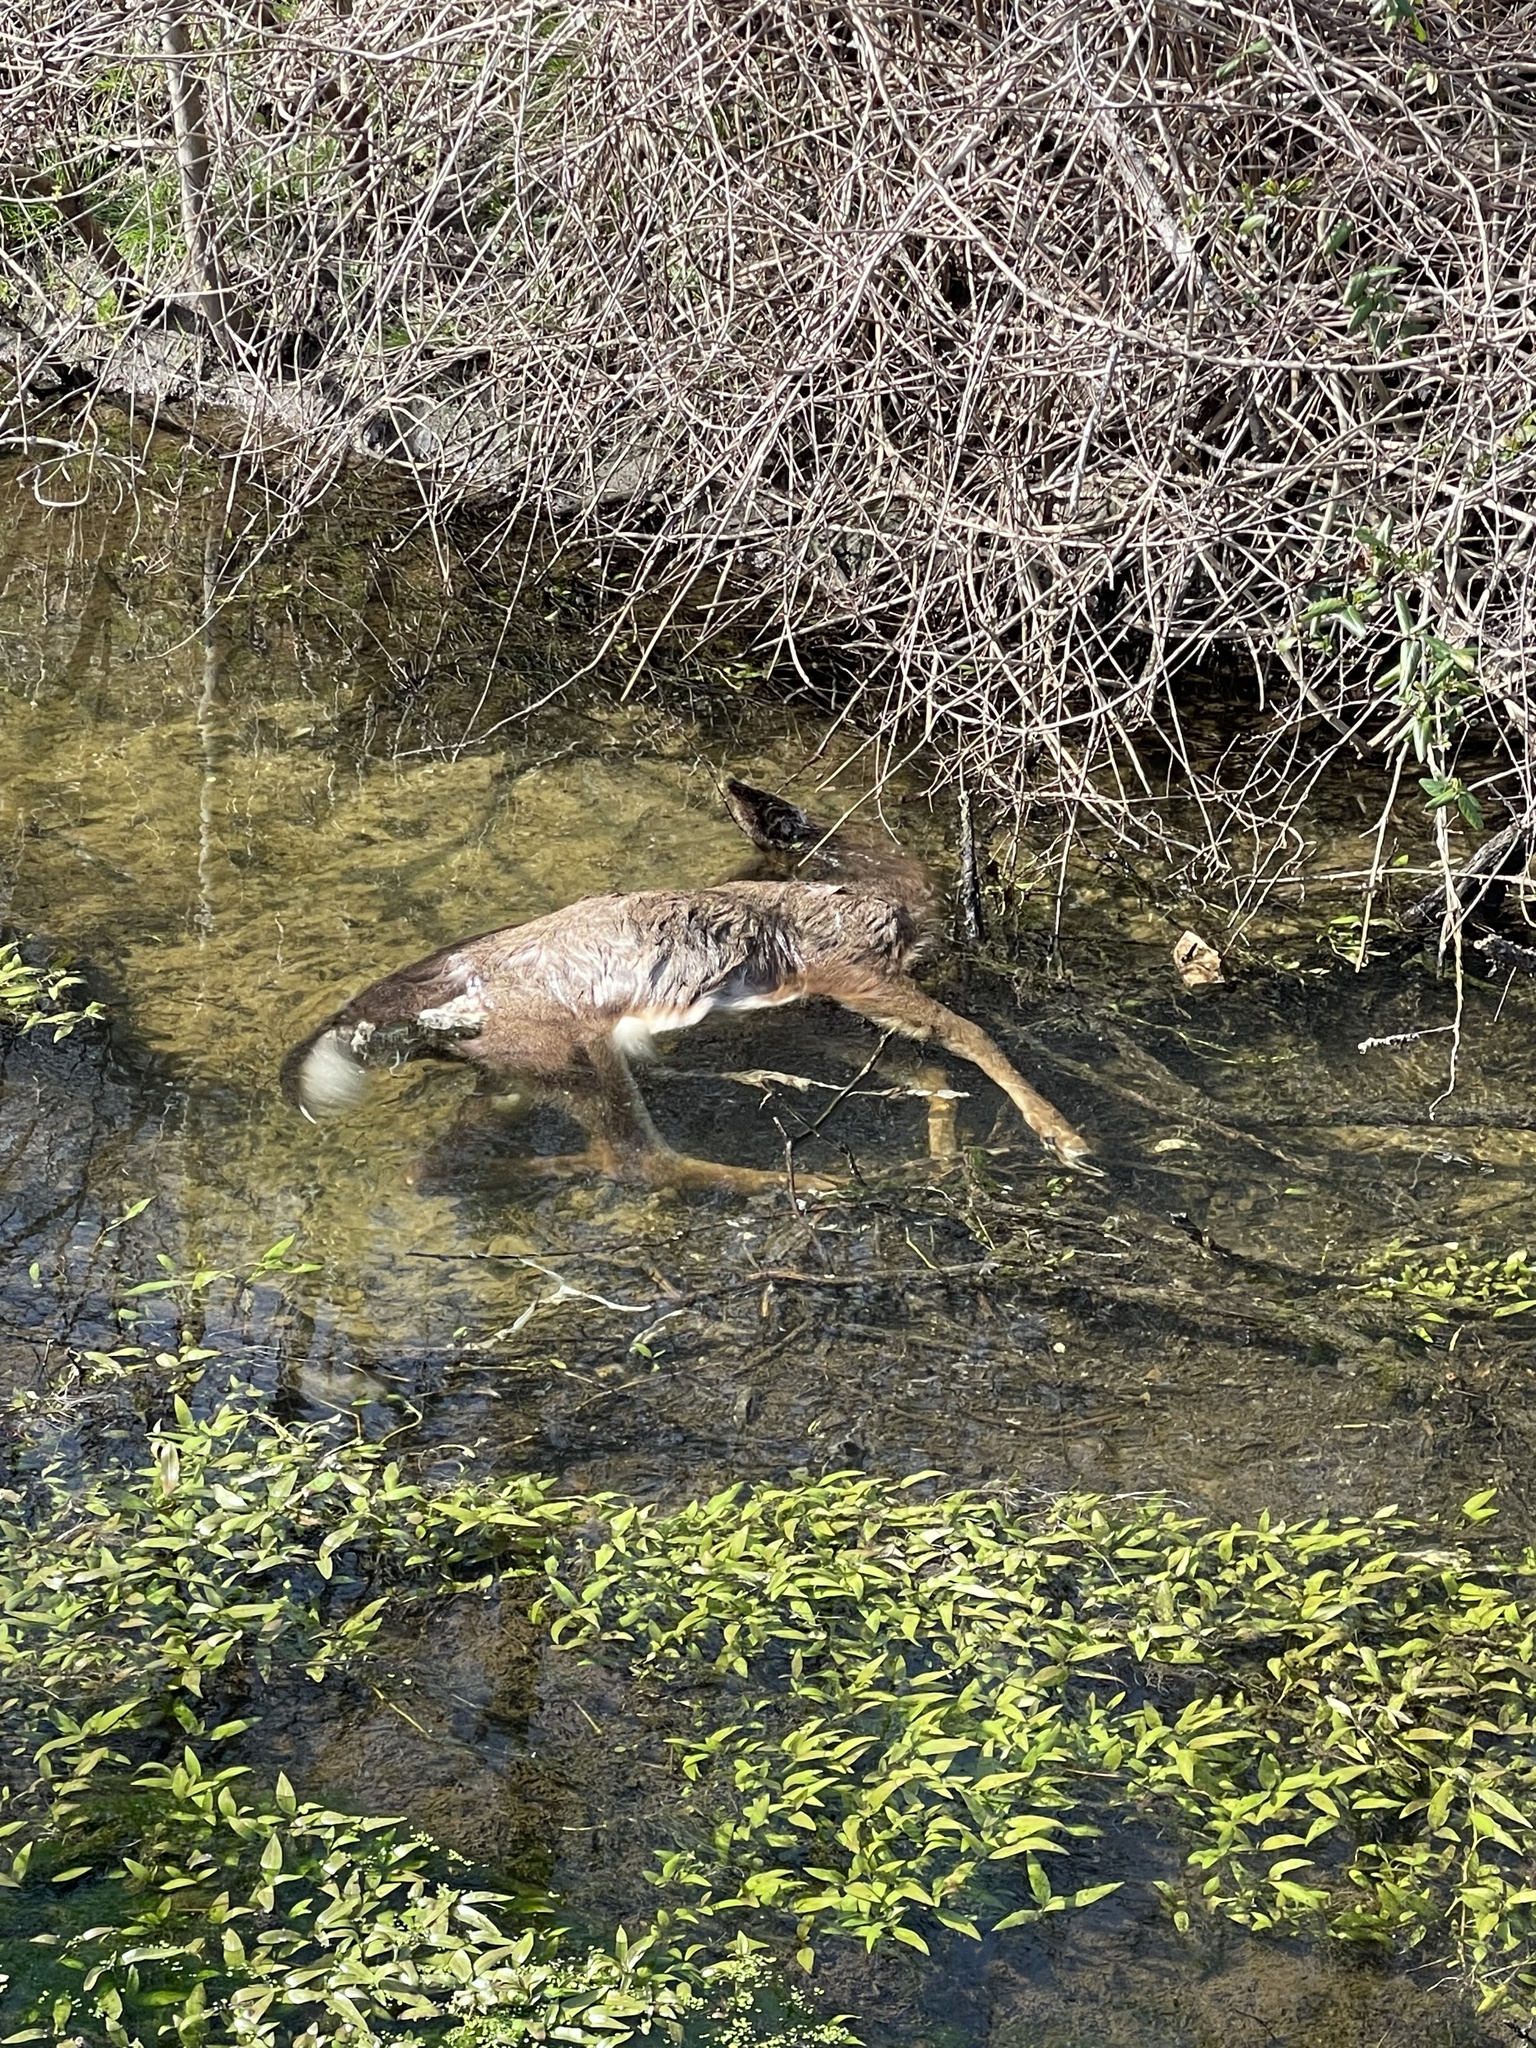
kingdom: Animalia
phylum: Chordata
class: Mammalia
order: Artiodactyla
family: Cervidae
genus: Odocoileus
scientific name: Odocoileus virginianus
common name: White-tailed deer
